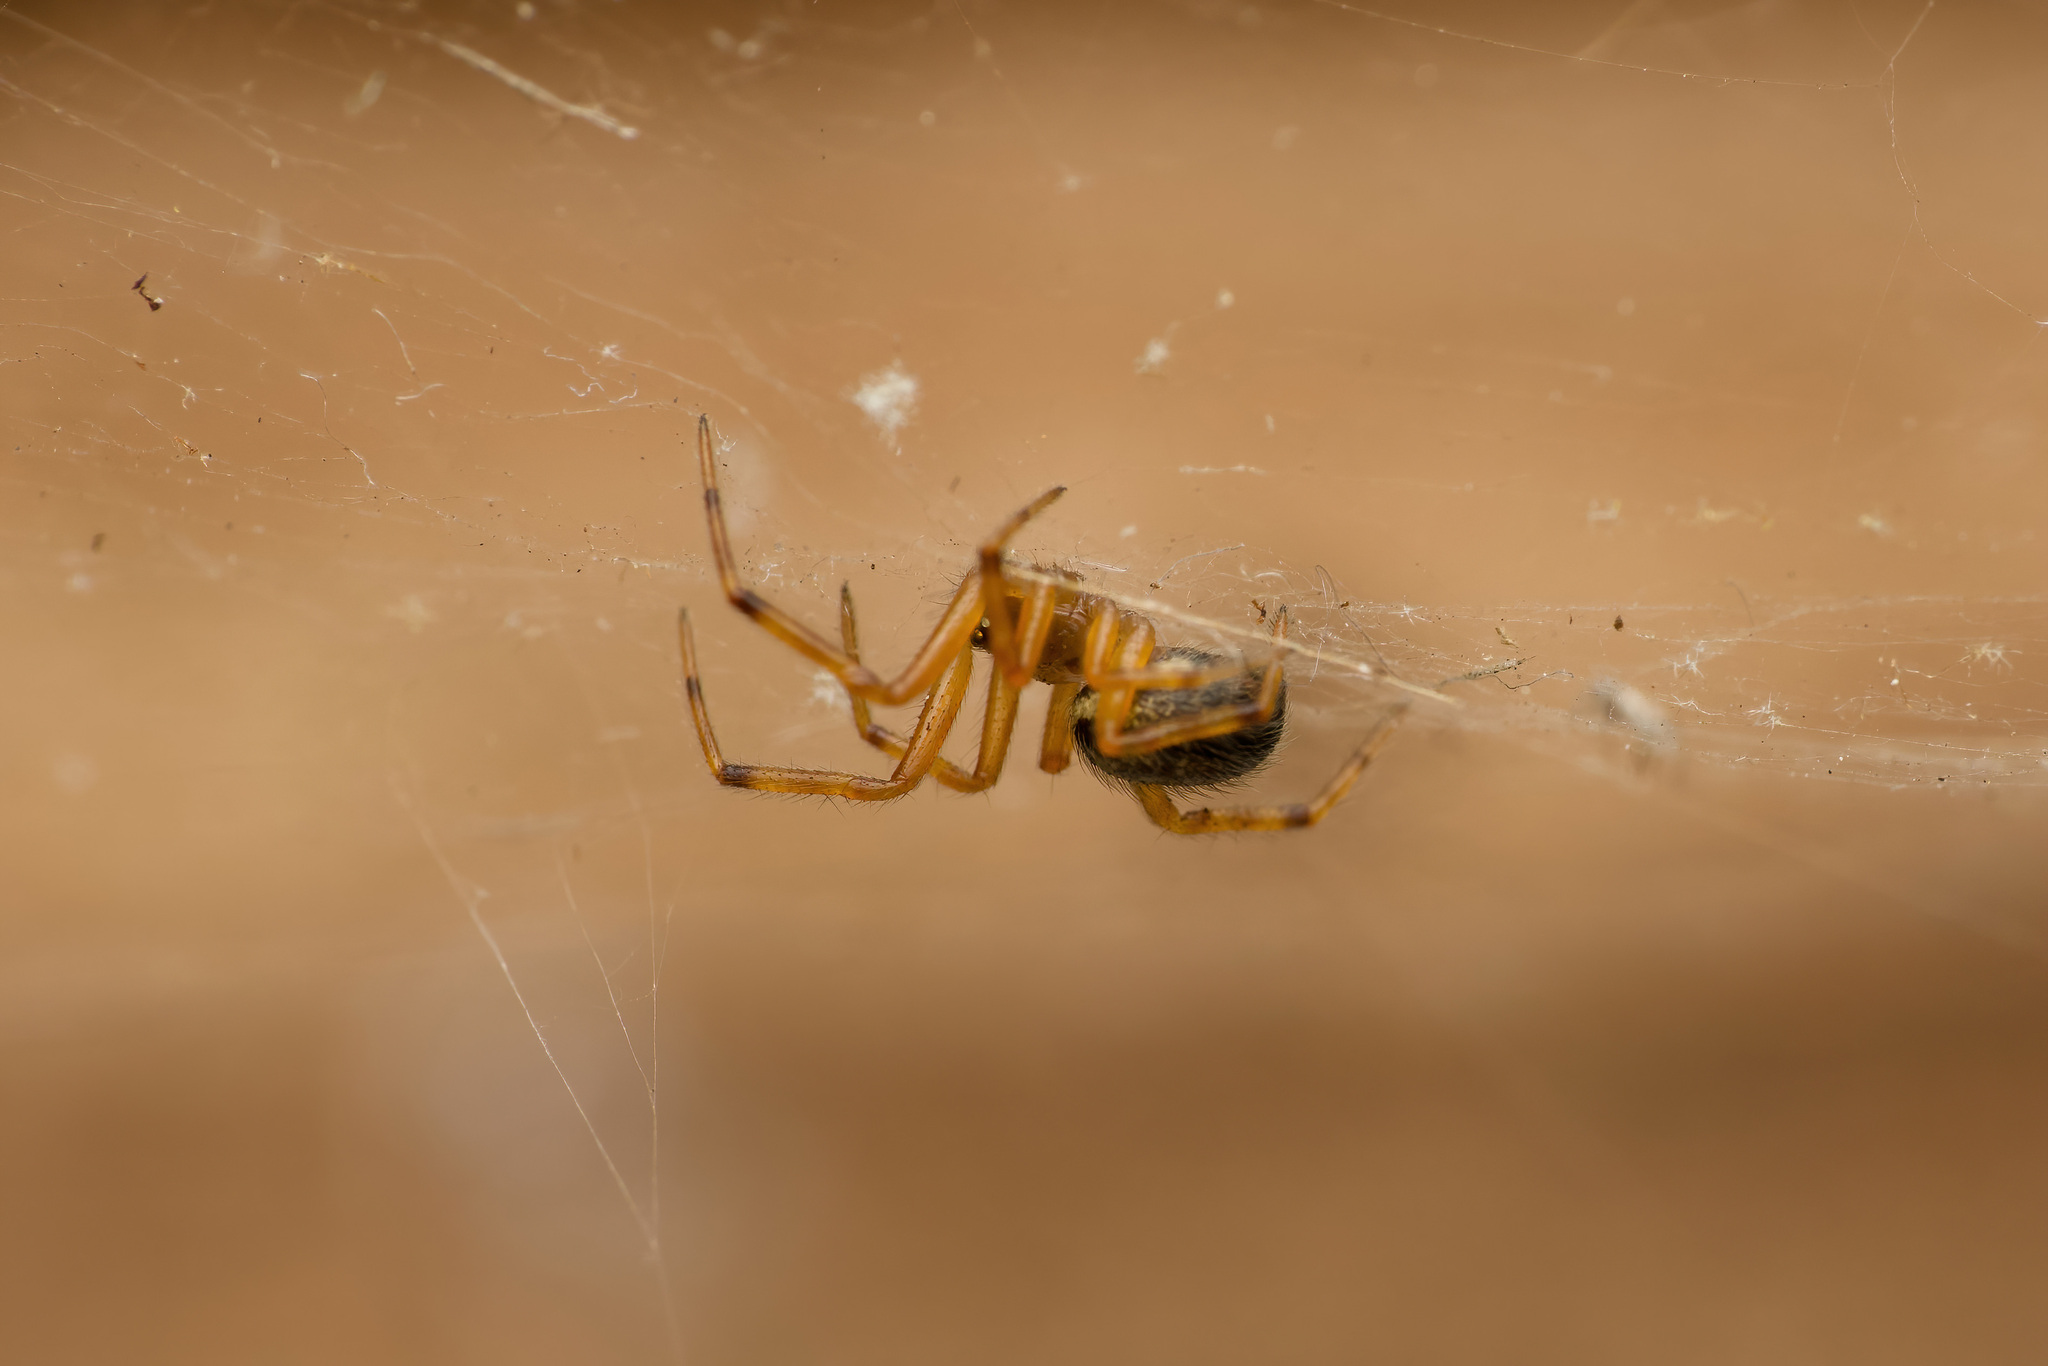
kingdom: Animalia
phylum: Arthropoda
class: Arachnida
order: Araneae
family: Theridiidae
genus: Steatoda
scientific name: Steatoda nobilis
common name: Cobweb weaver
